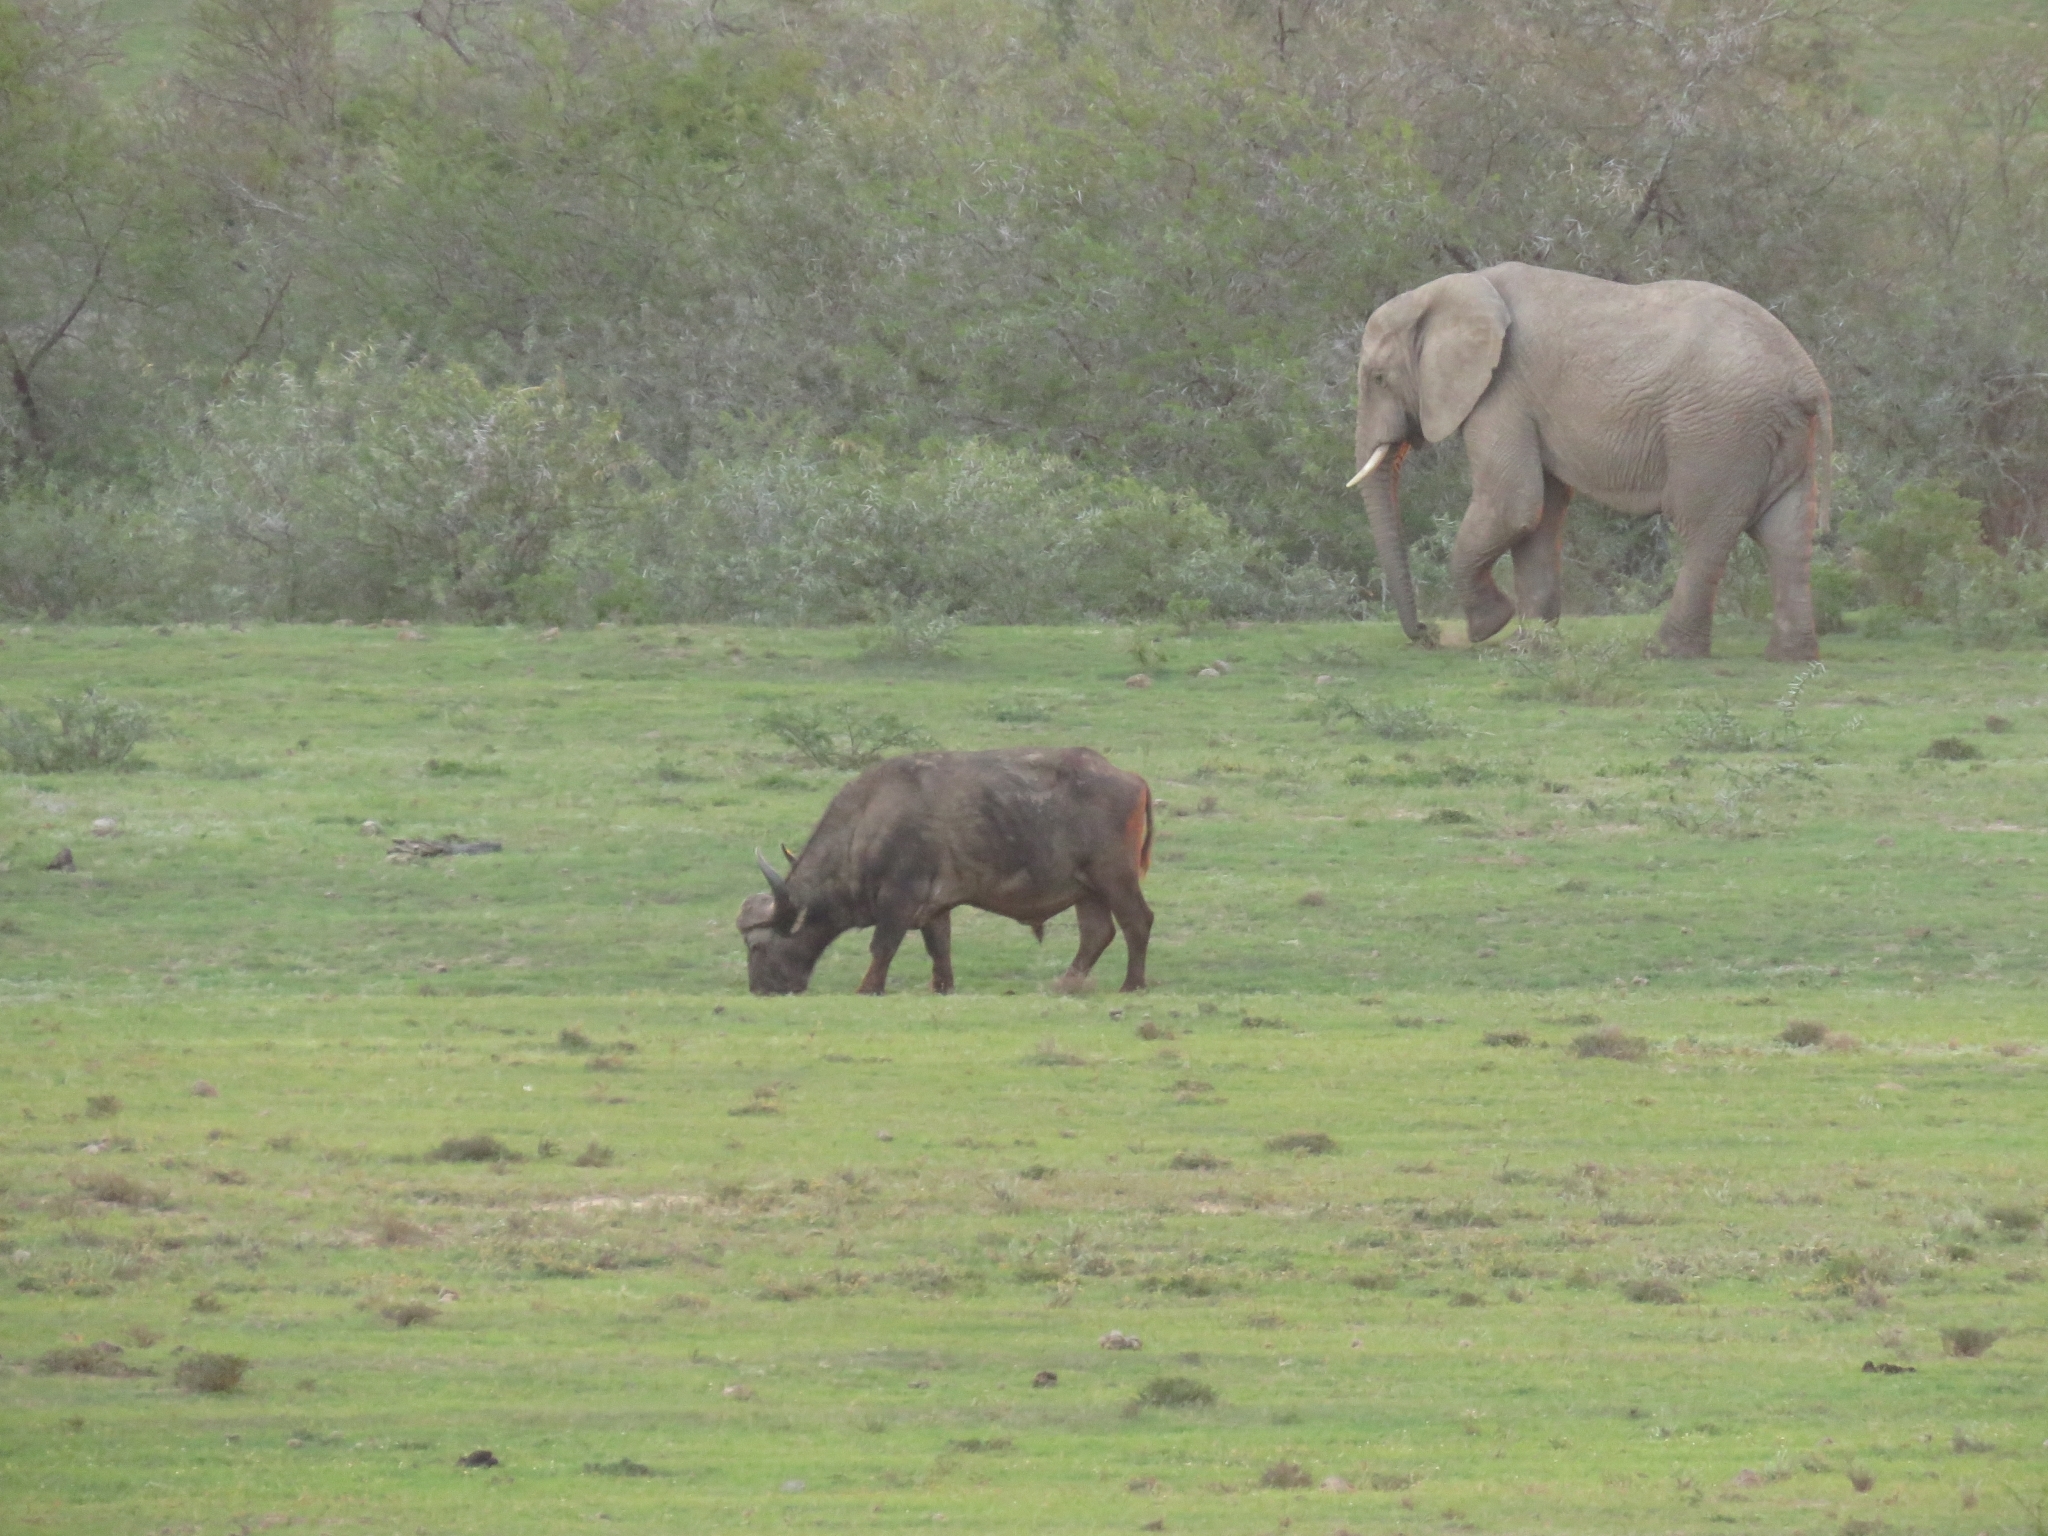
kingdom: Animalia
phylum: Chordata
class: Mammalia
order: Artiodactyla
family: Bovidae
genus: Syncerus
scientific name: Syncerus caffer
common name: African buffalo
